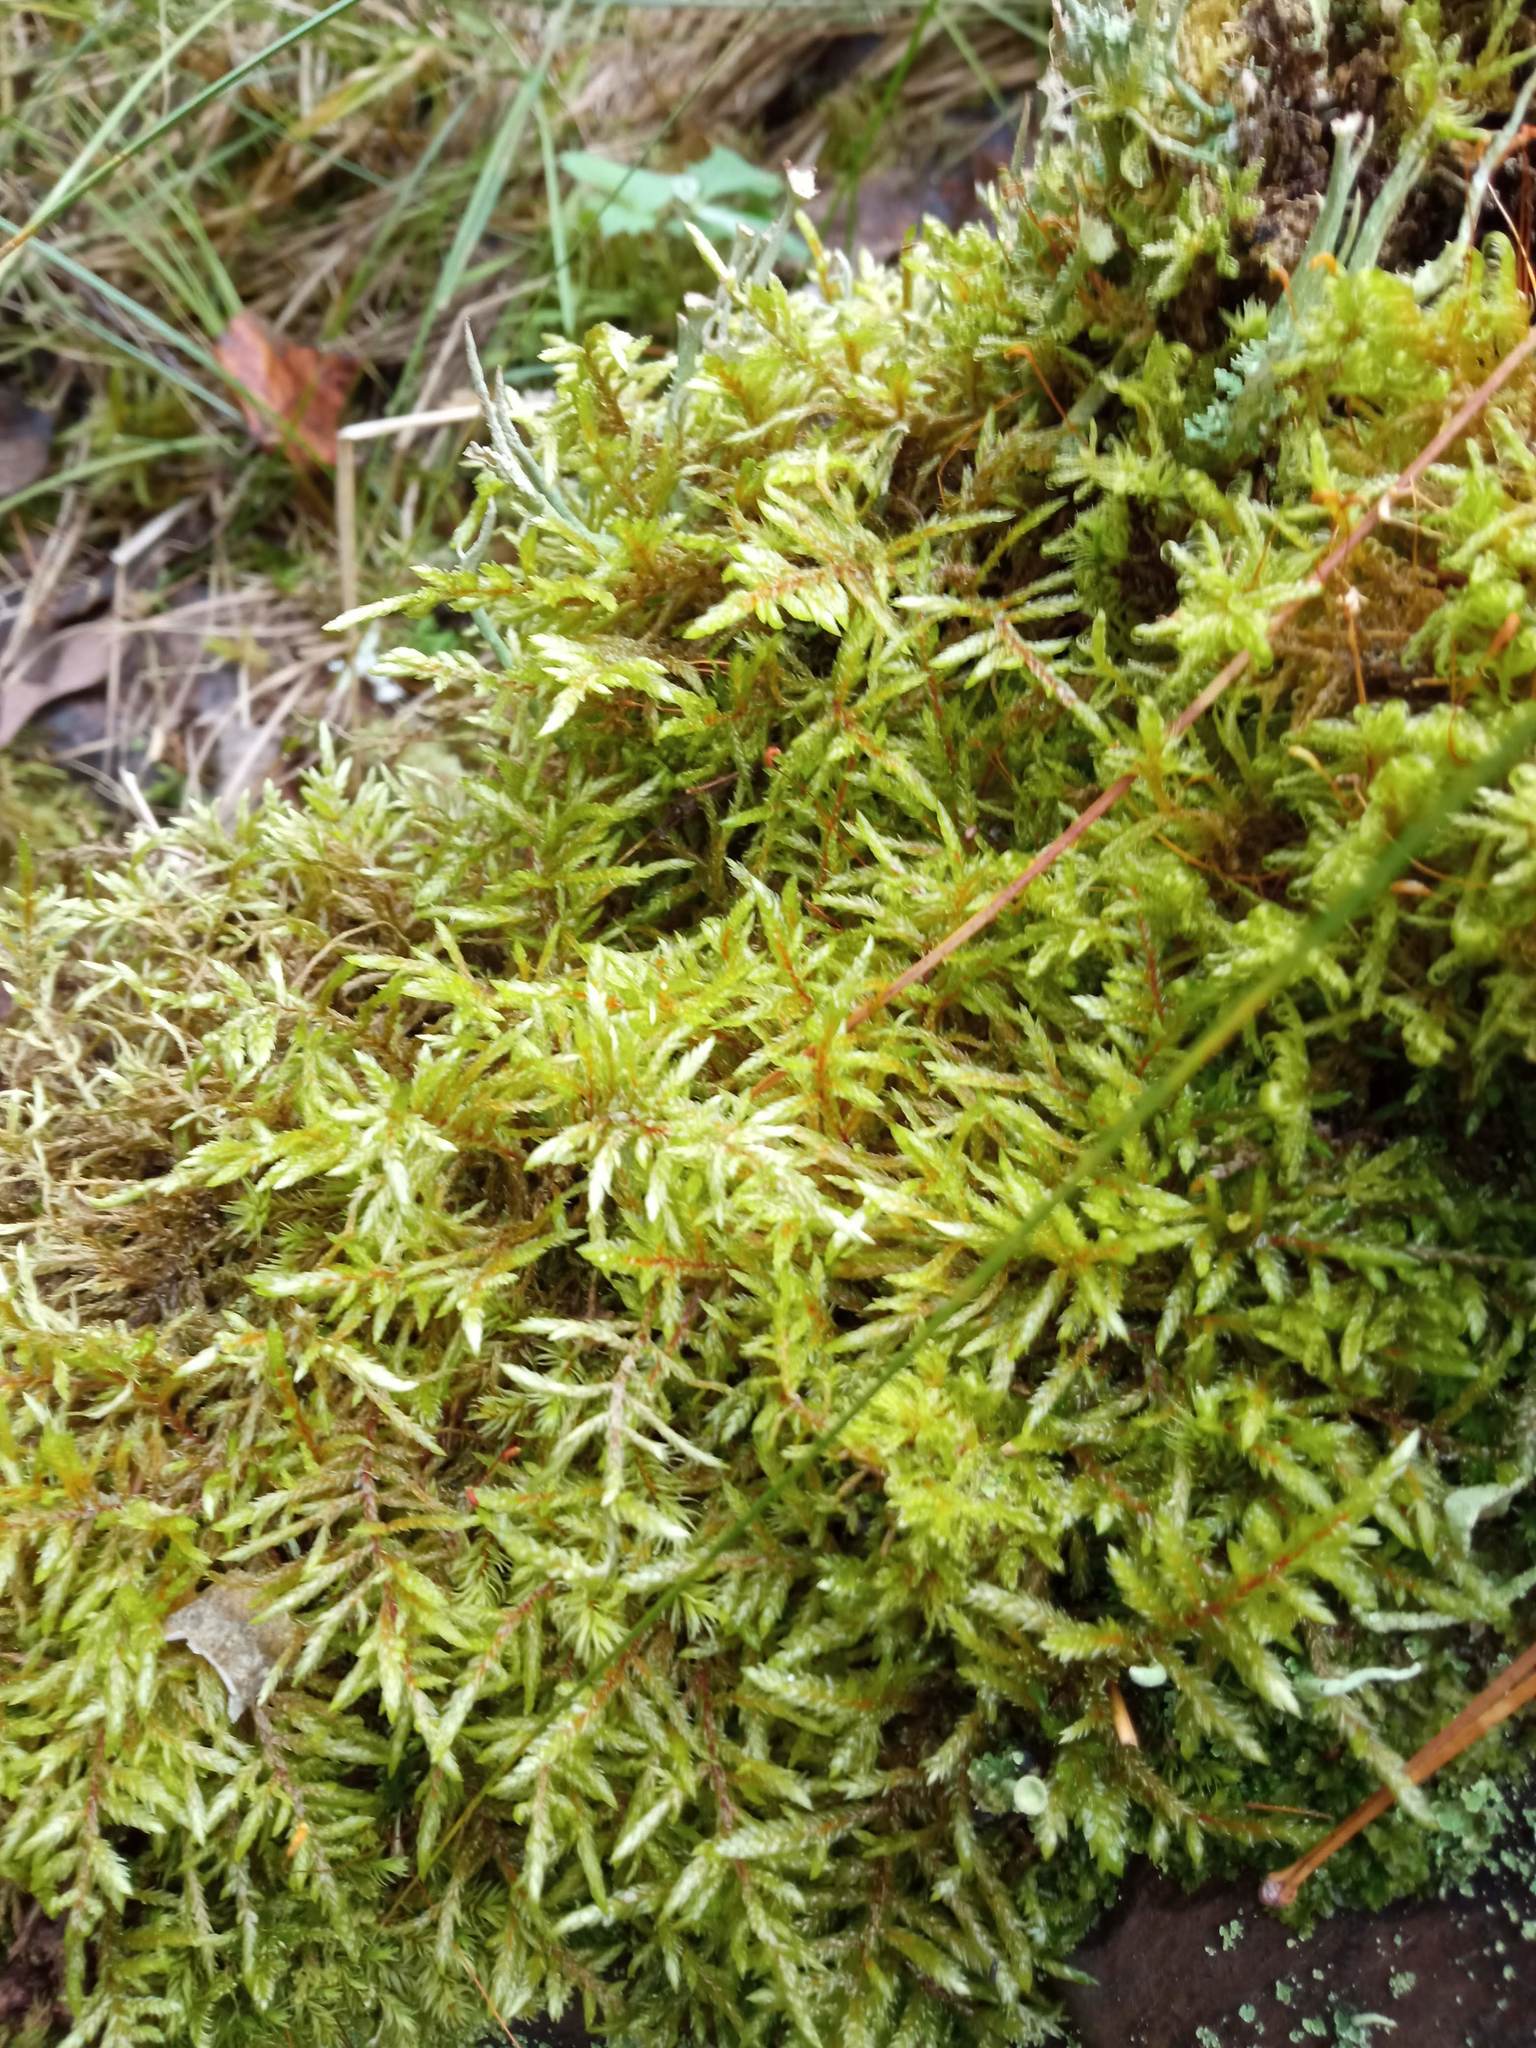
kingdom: Plantae
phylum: Bryophyta
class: Bryopsida
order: Hypnales
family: Hylocomiaceae
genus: Pleurozium
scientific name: Pleurozium schreberi
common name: Red-stemmed feather moss
